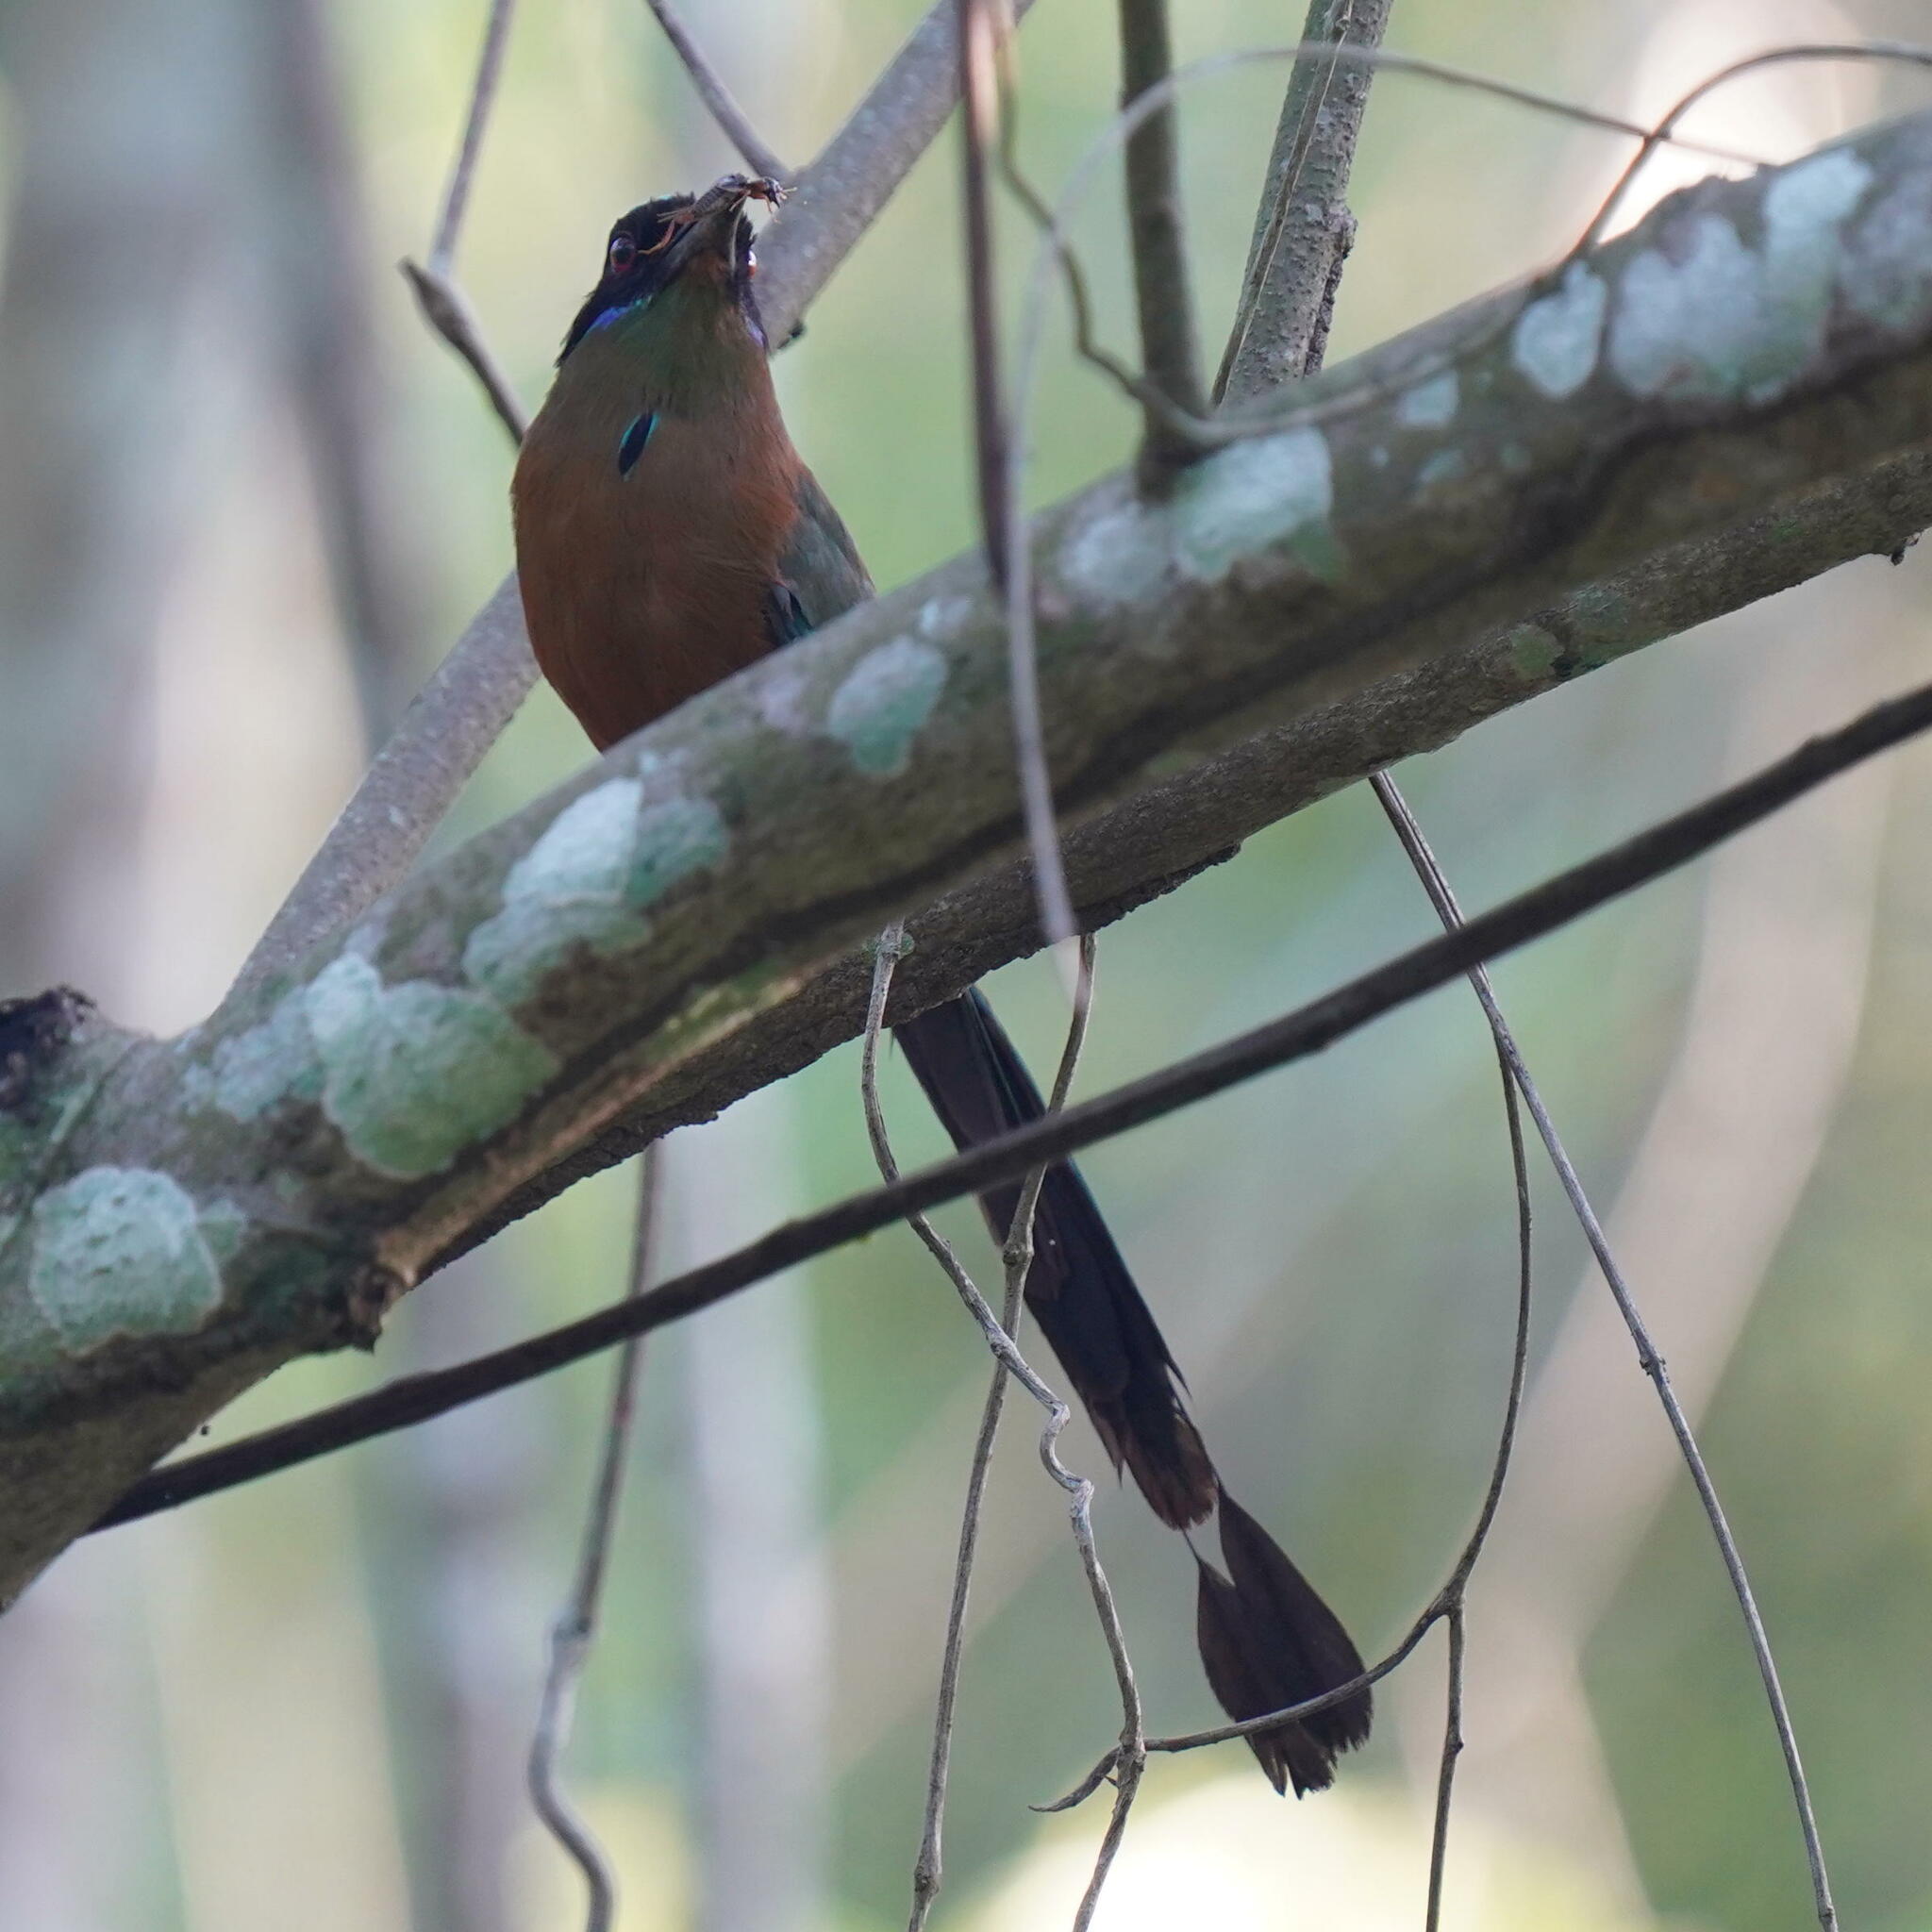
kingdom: Animalia
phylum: Chordata
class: Aves
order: Coraciiformes
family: Momotidae
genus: Momotus
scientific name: Momotus subrufescens
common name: Whooping motmot
